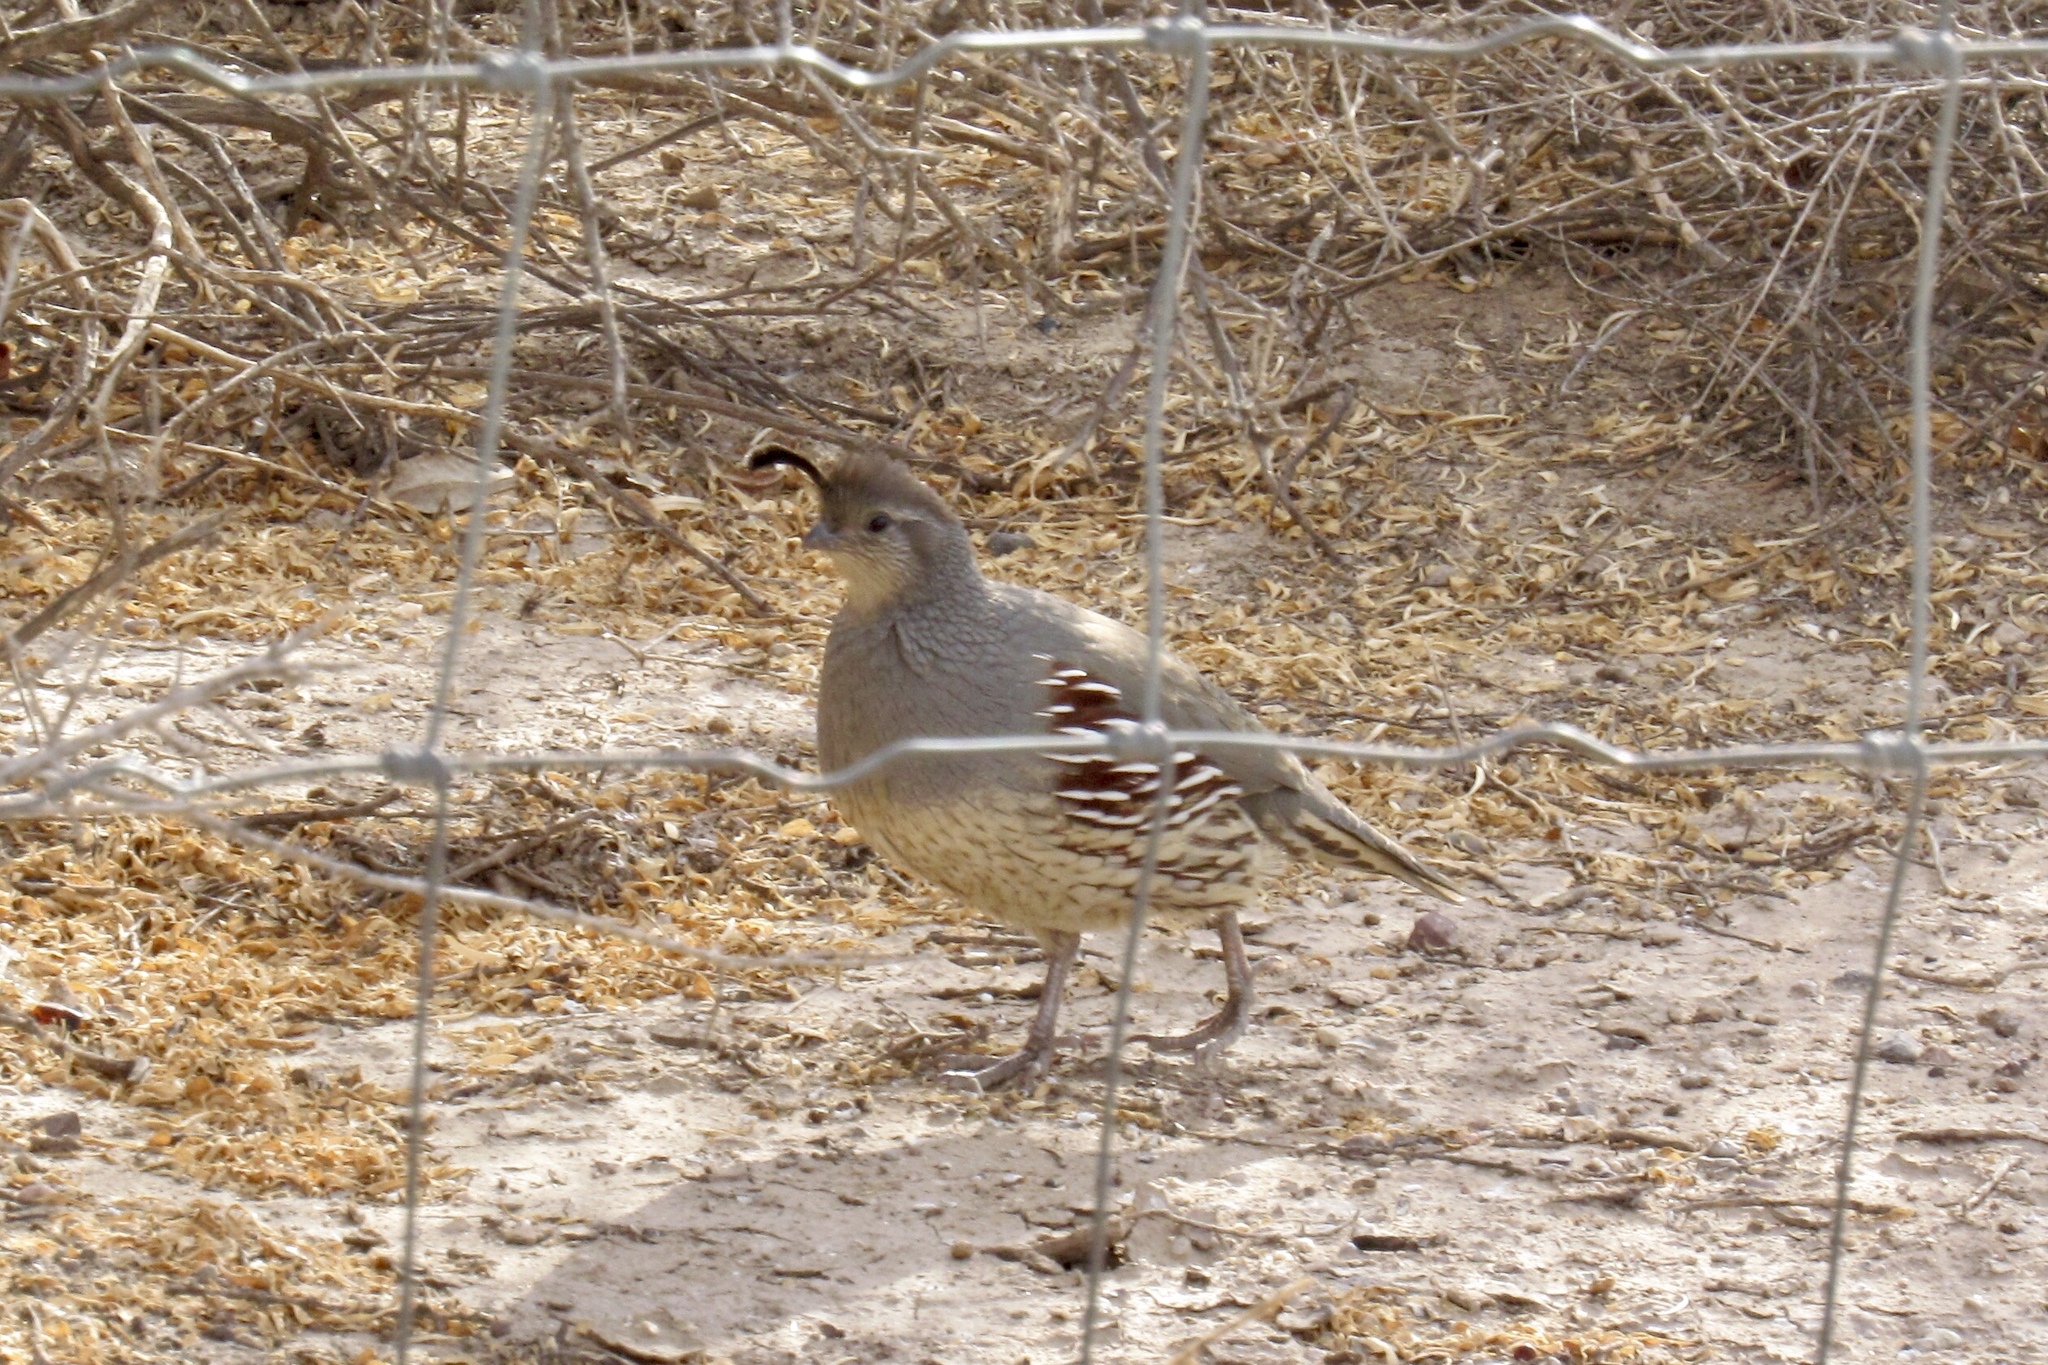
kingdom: Animalia
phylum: Chordata
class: Aves
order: Galliformes
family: Odontophoridae
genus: Callipepla
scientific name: Callipepla gambelii
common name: Gambel's quail
